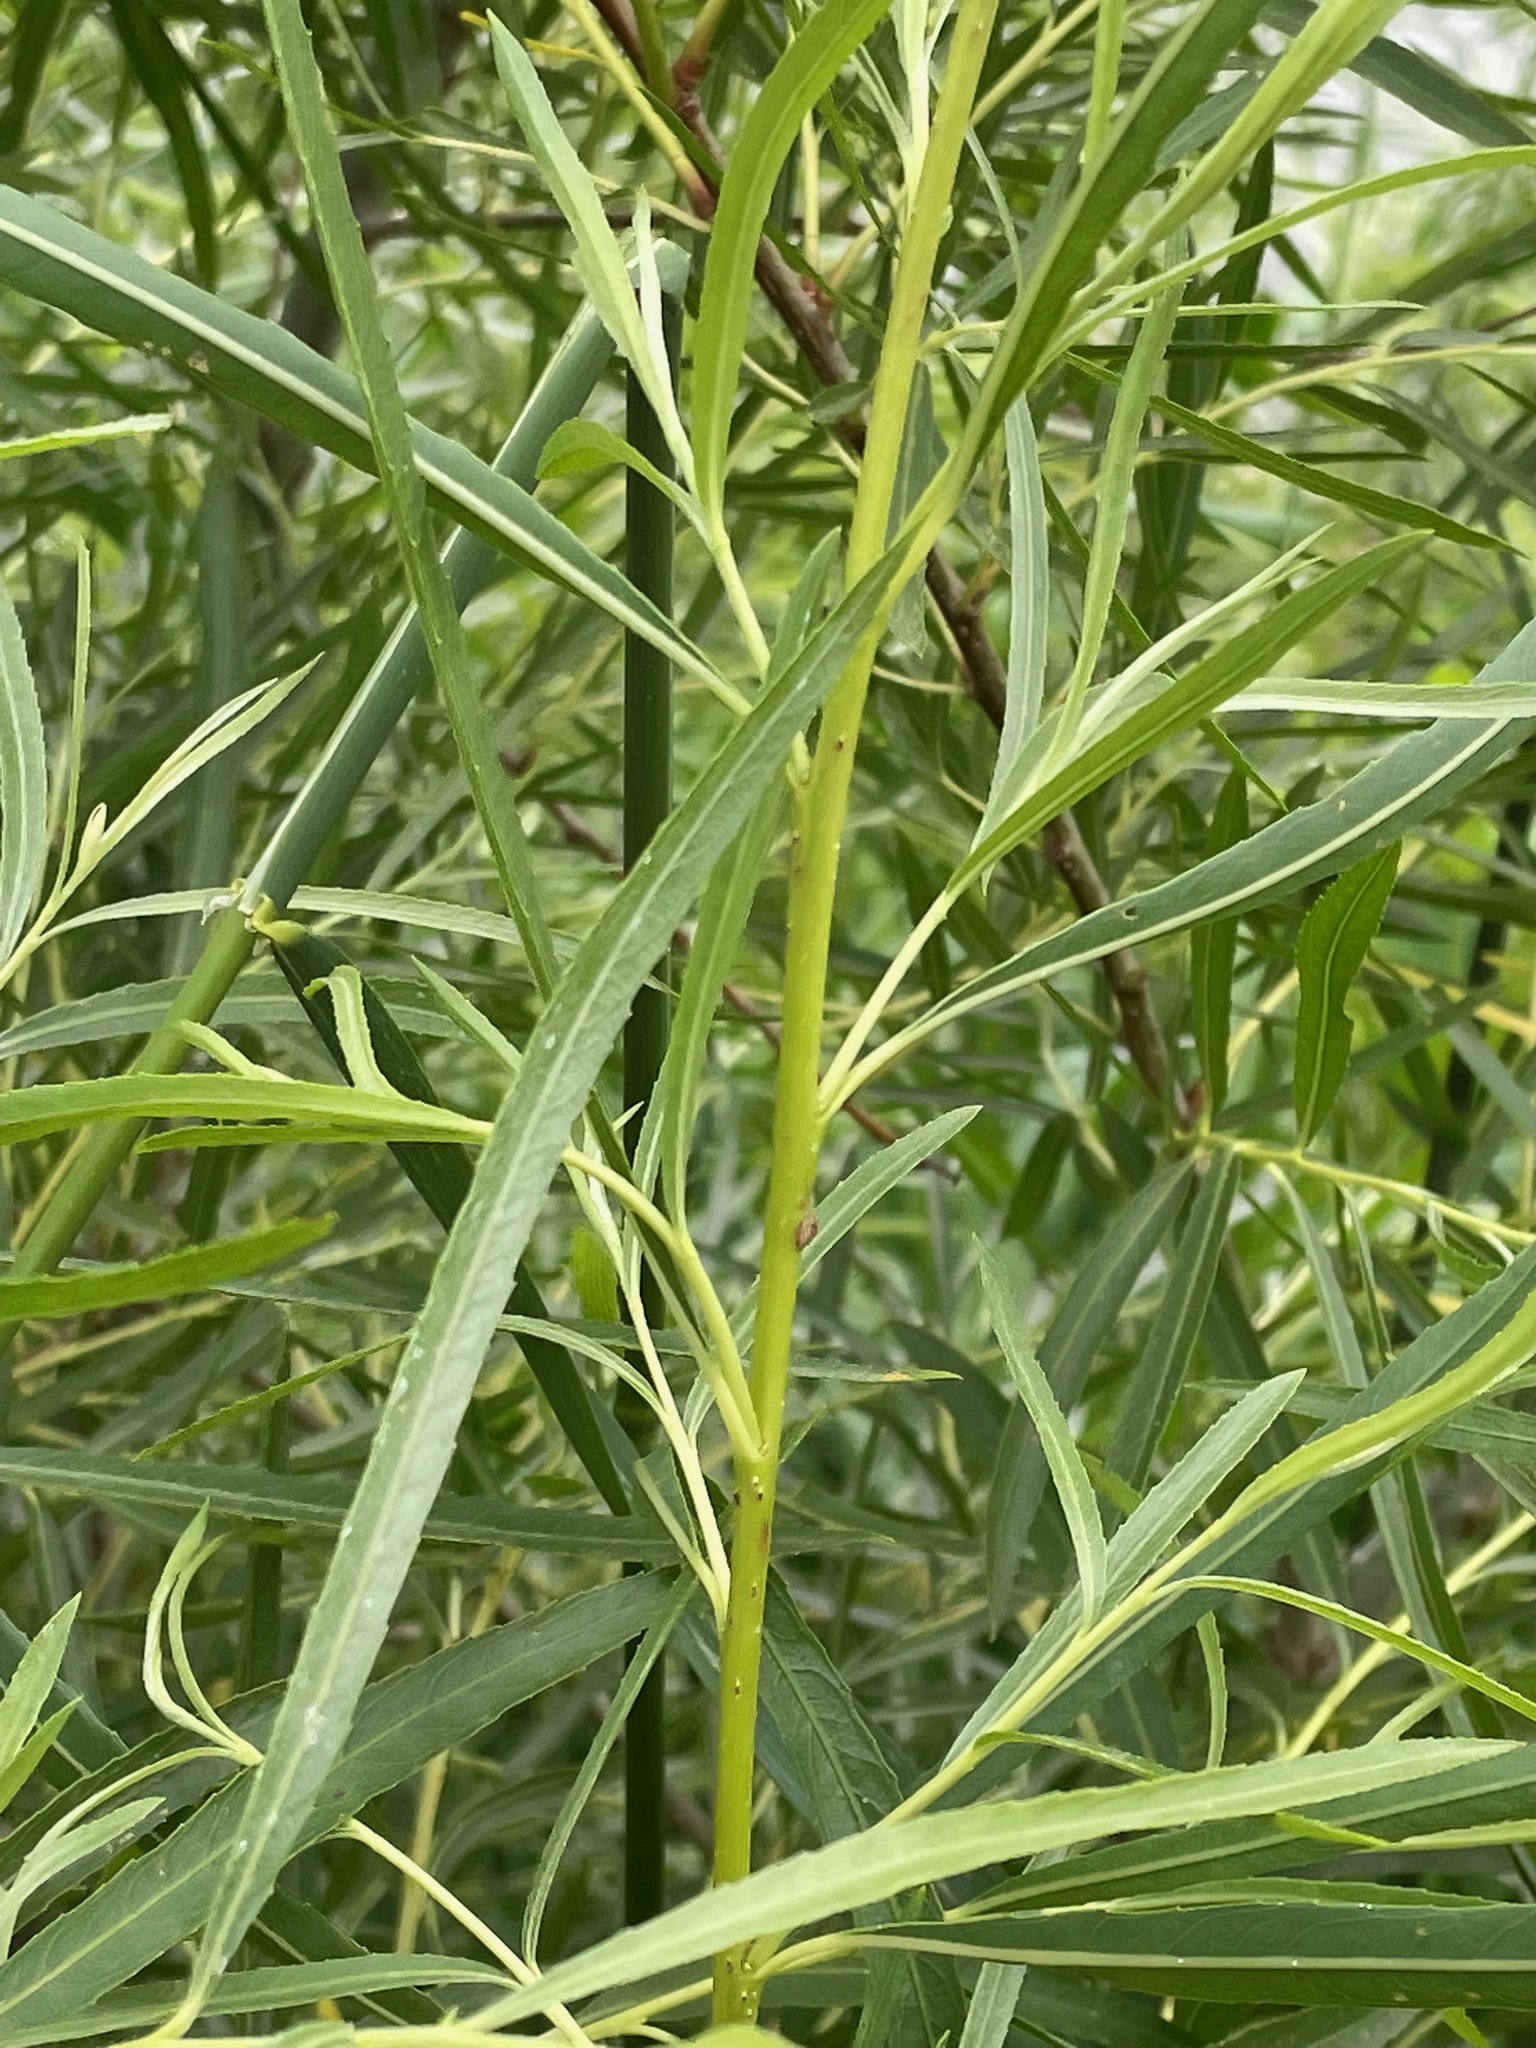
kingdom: Plantae
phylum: Tracheophyta
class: Magnoliopsida
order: Malpighiales
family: Salicaceae
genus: Salix
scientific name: Salix interior
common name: Sandbar willow
